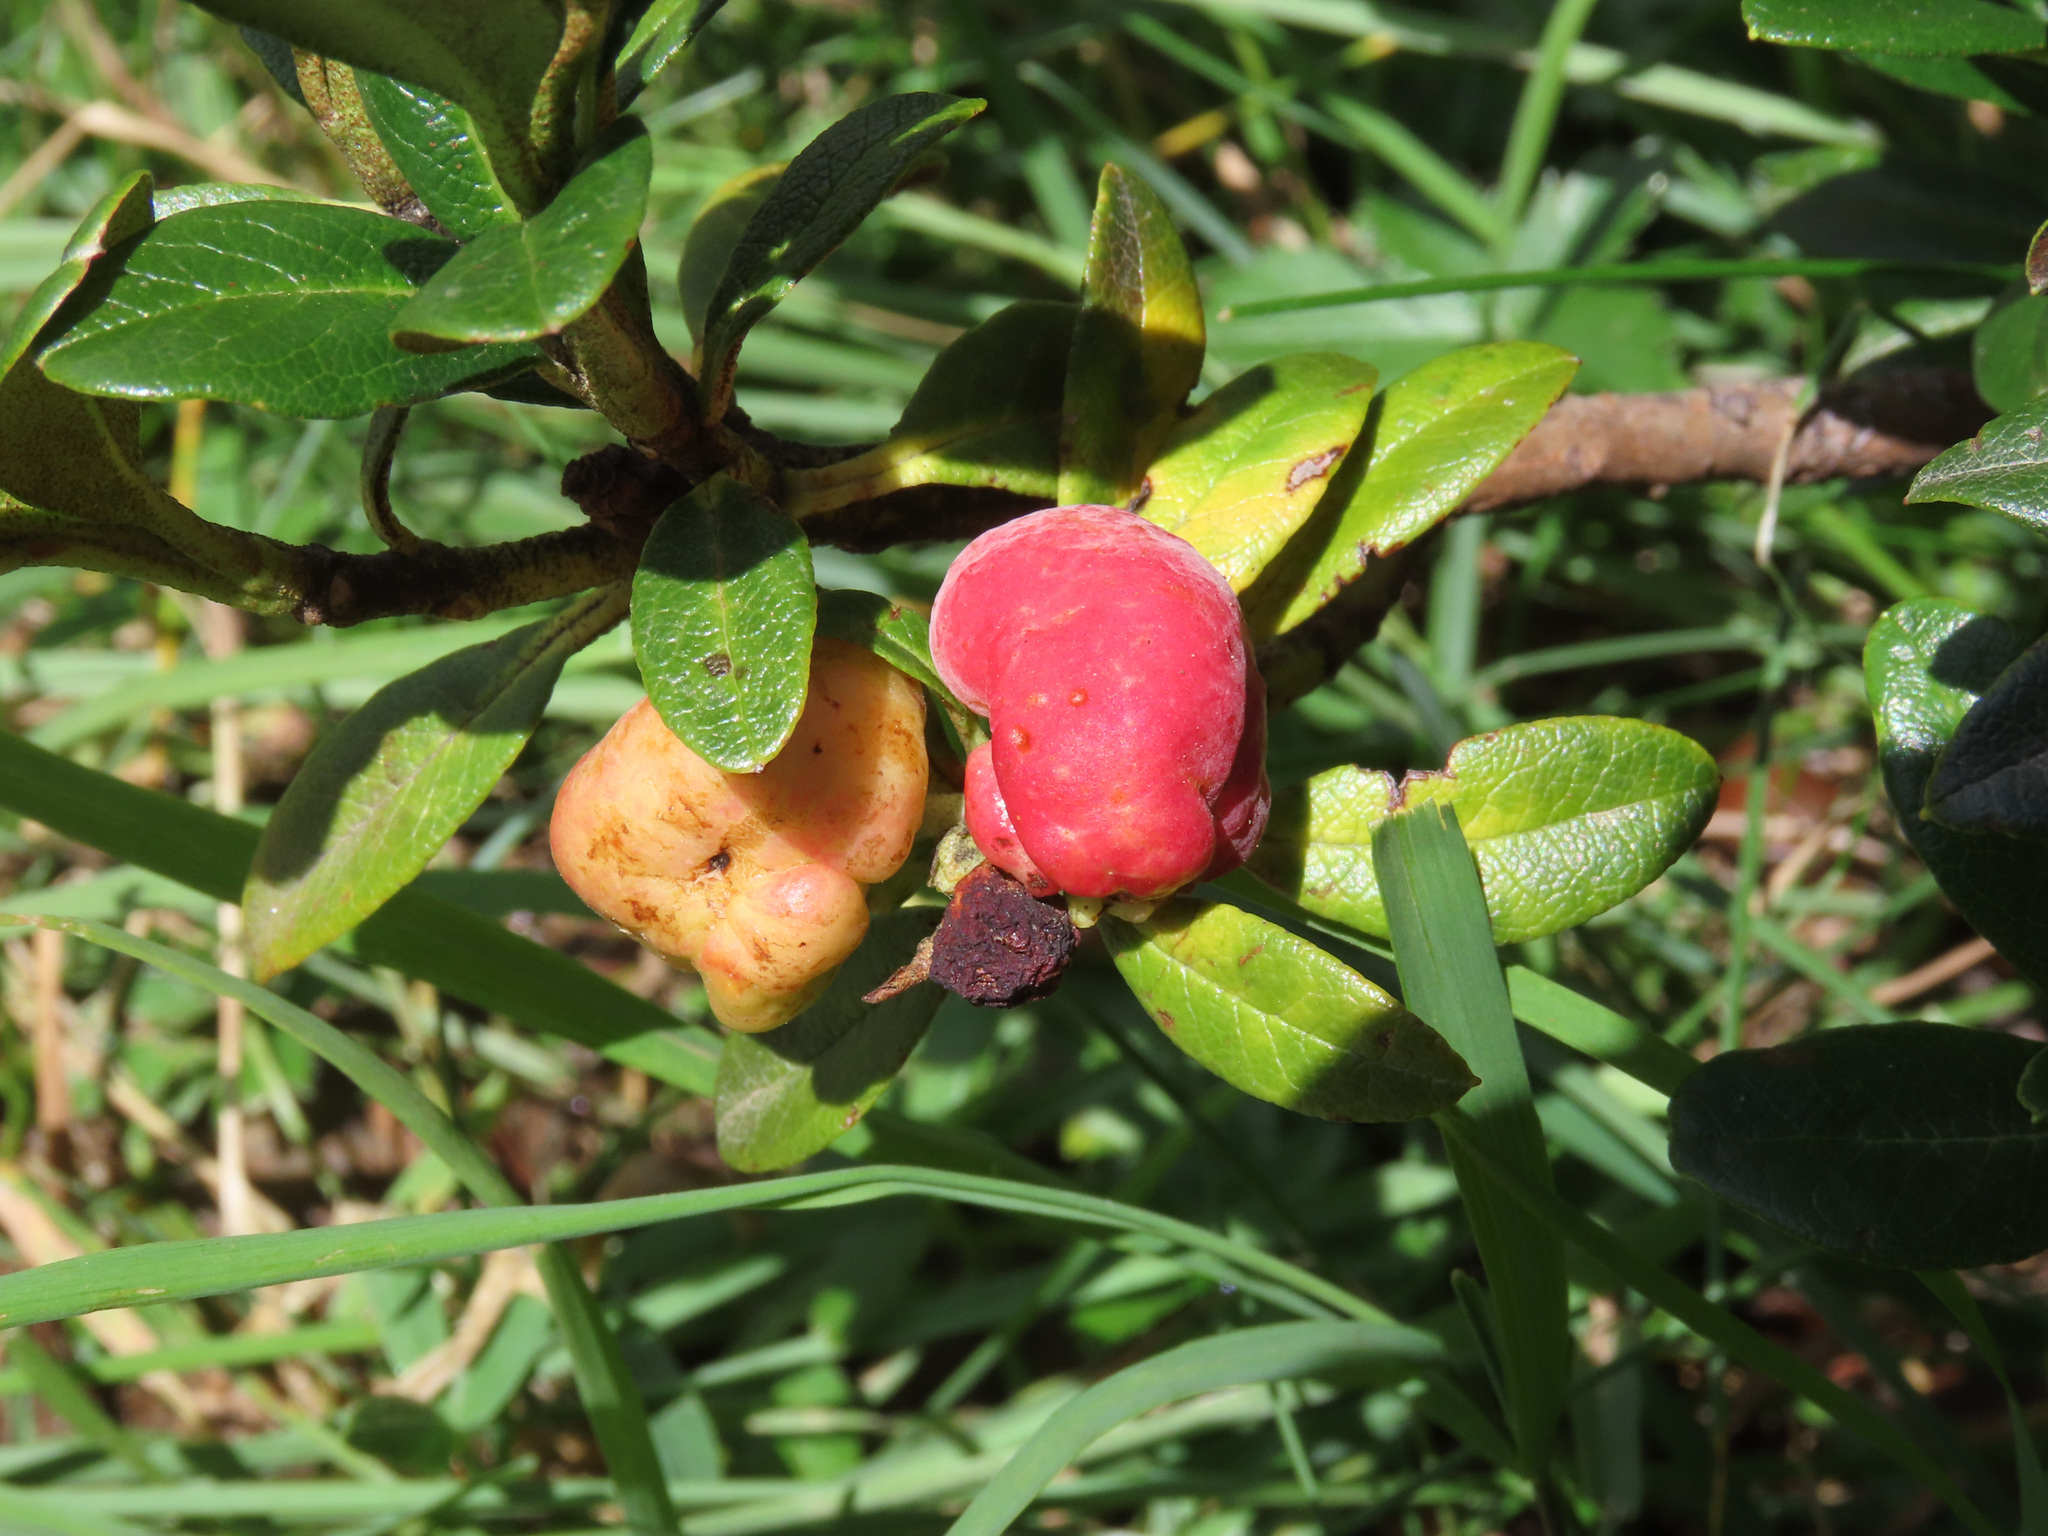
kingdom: Fungi
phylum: Basidiomycota
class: Exobasidiomycetes
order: Exobasidiales
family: Exobasidiaceae
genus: Exobasidium
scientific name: Exobasidium rhododendri
